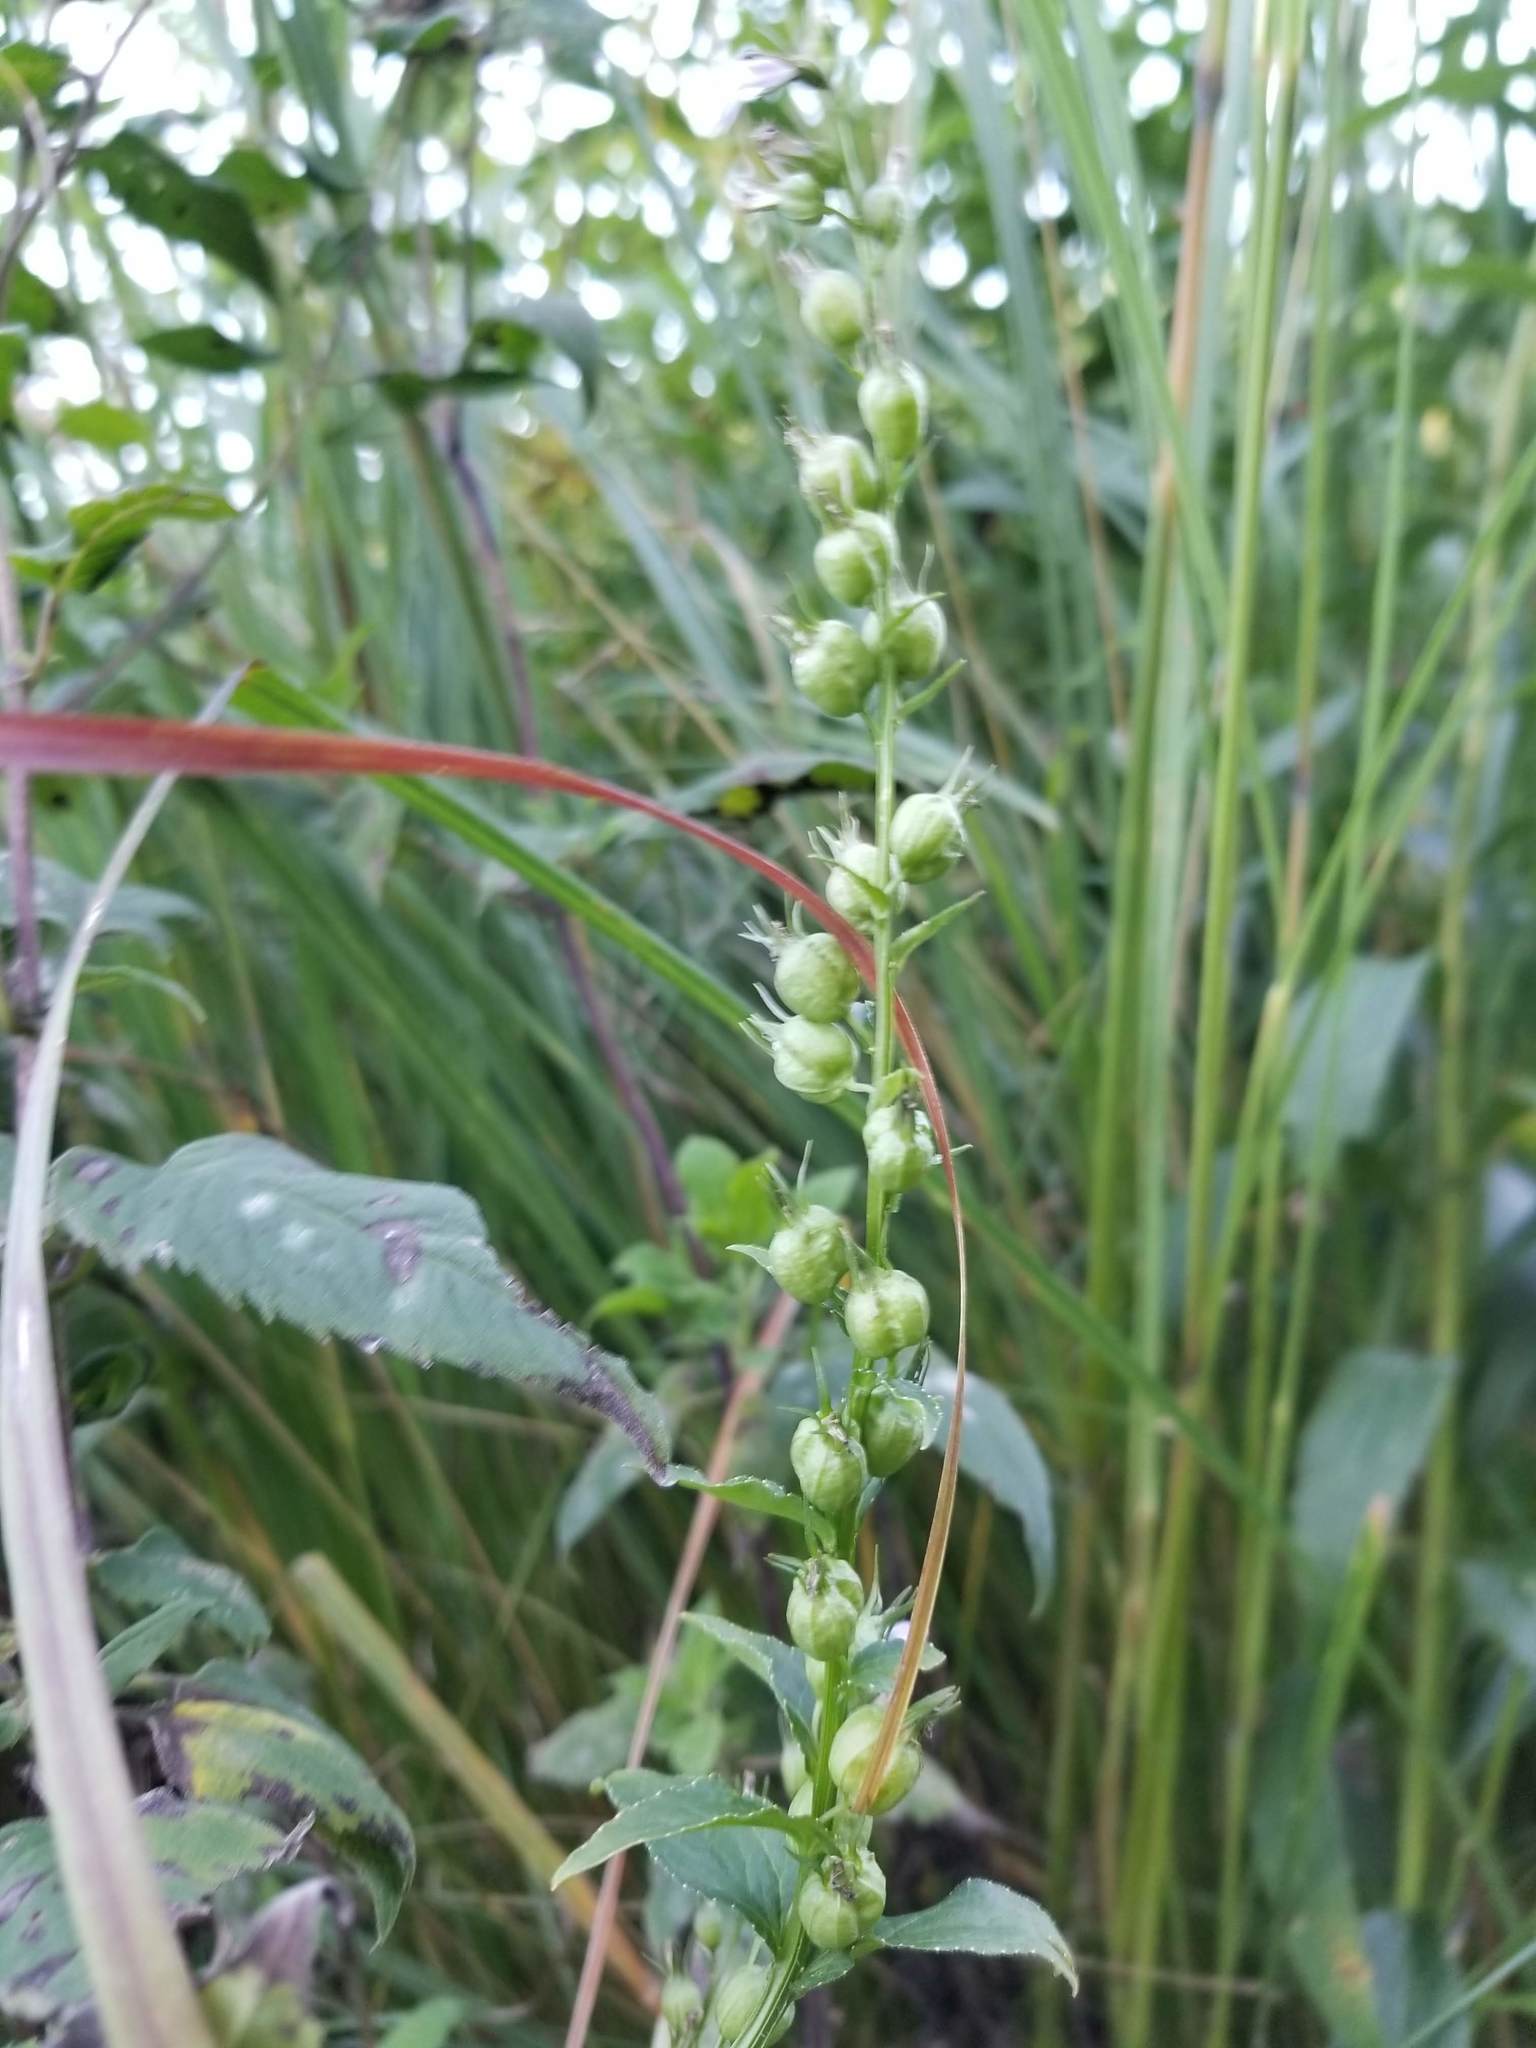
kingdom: Plantae
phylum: Tracheophyta
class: Magnoliopsida
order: Asterales
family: Campanulaceae
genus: Lobelia
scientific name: Lobelia inflata
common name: Indian tobacco
